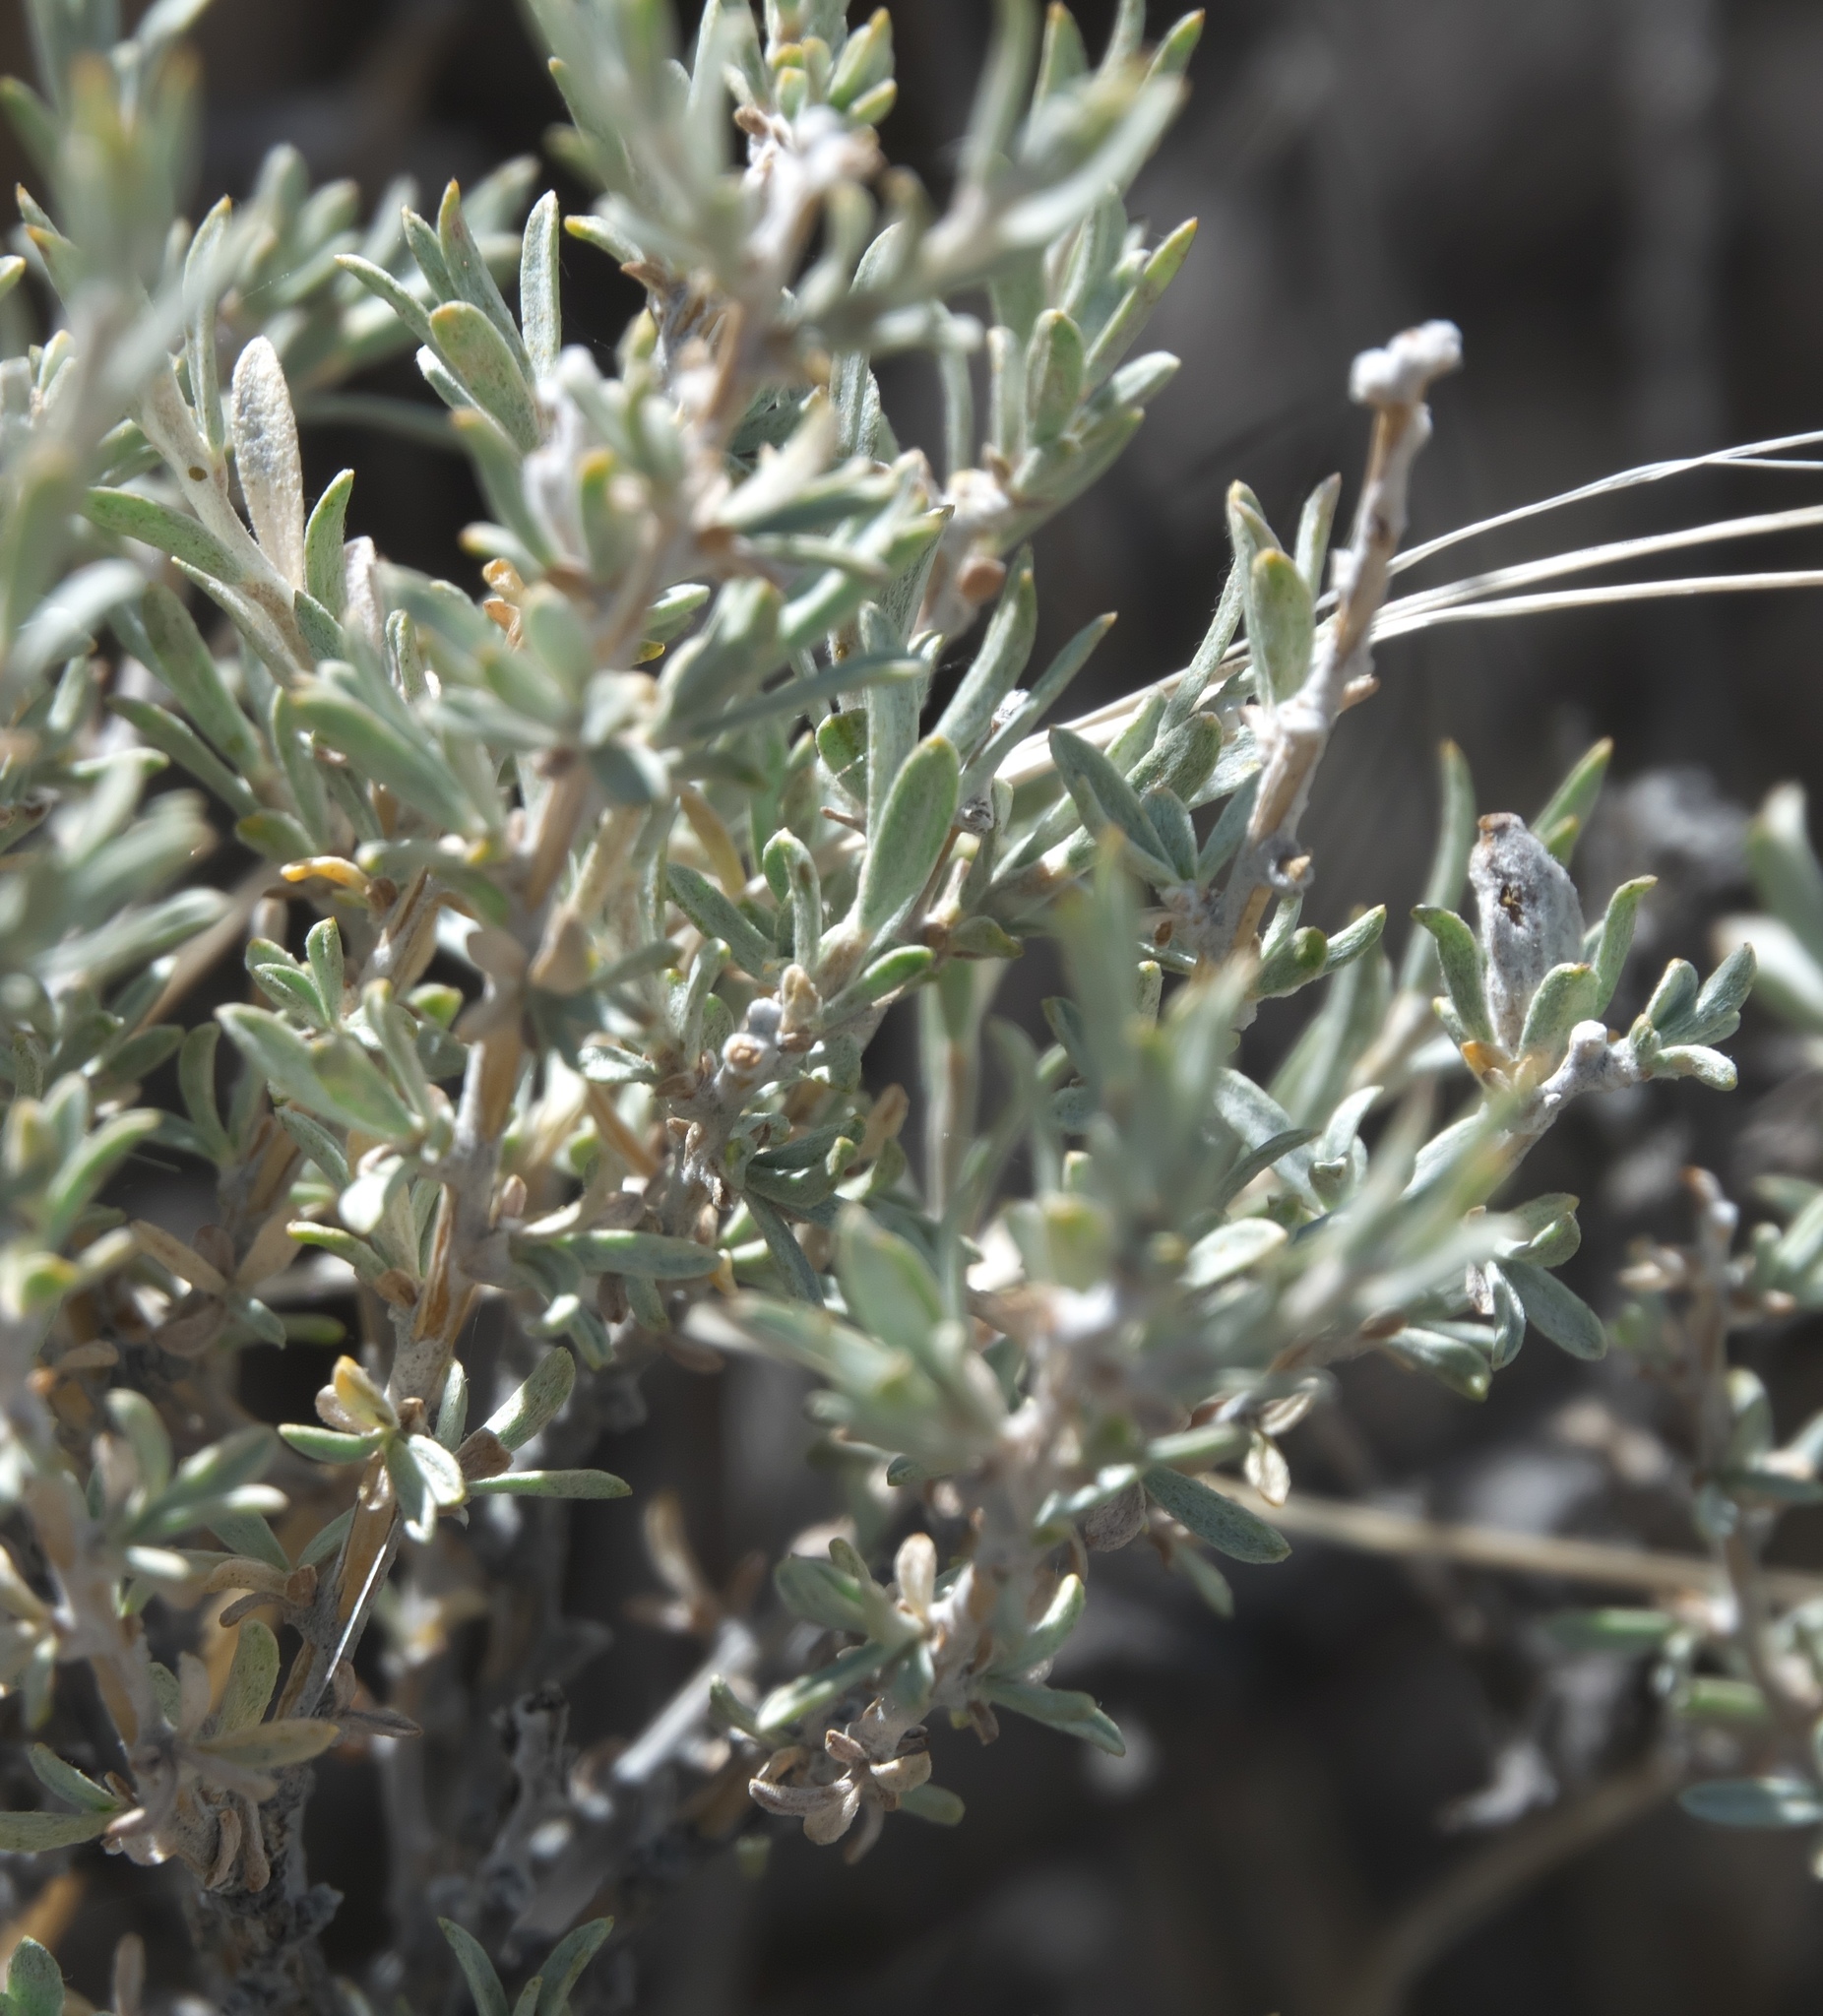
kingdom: Plantae
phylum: Tracheophyta
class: Magnoliopsida
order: Asterales
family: Asteraceae
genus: Tetradymia
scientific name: Tetradymia canescens
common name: Spineless horsebrush
